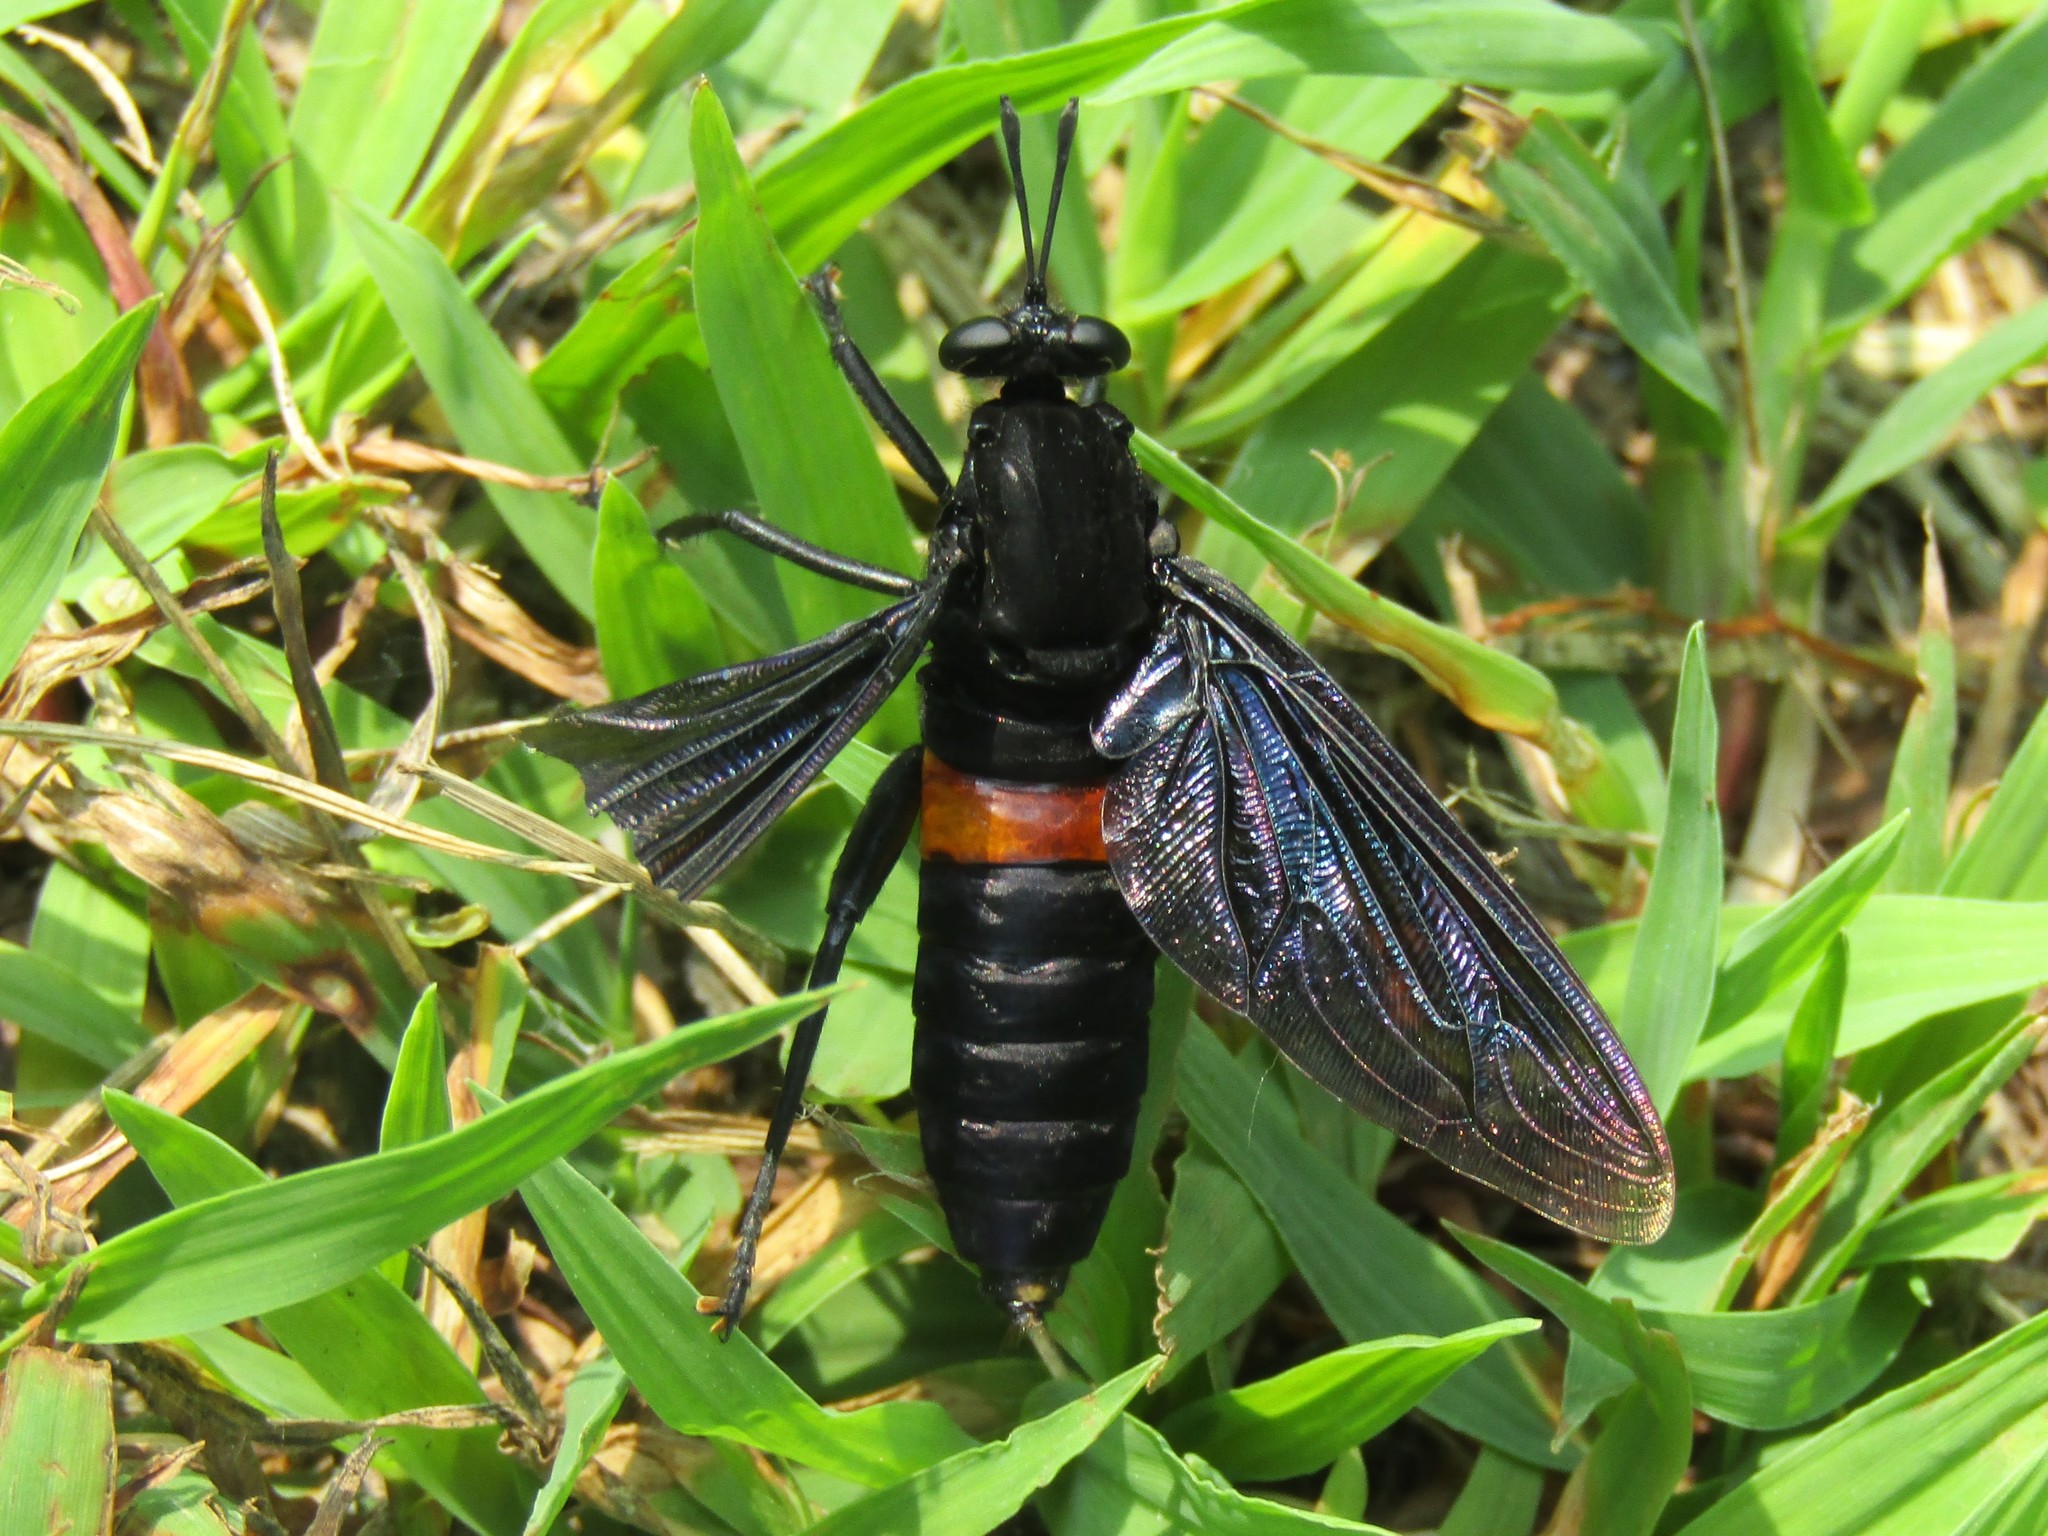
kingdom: Animalia
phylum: Arthropoda
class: Insecta
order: Diptera
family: Mydidae
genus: Mydas
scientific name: Mydas clavatus
